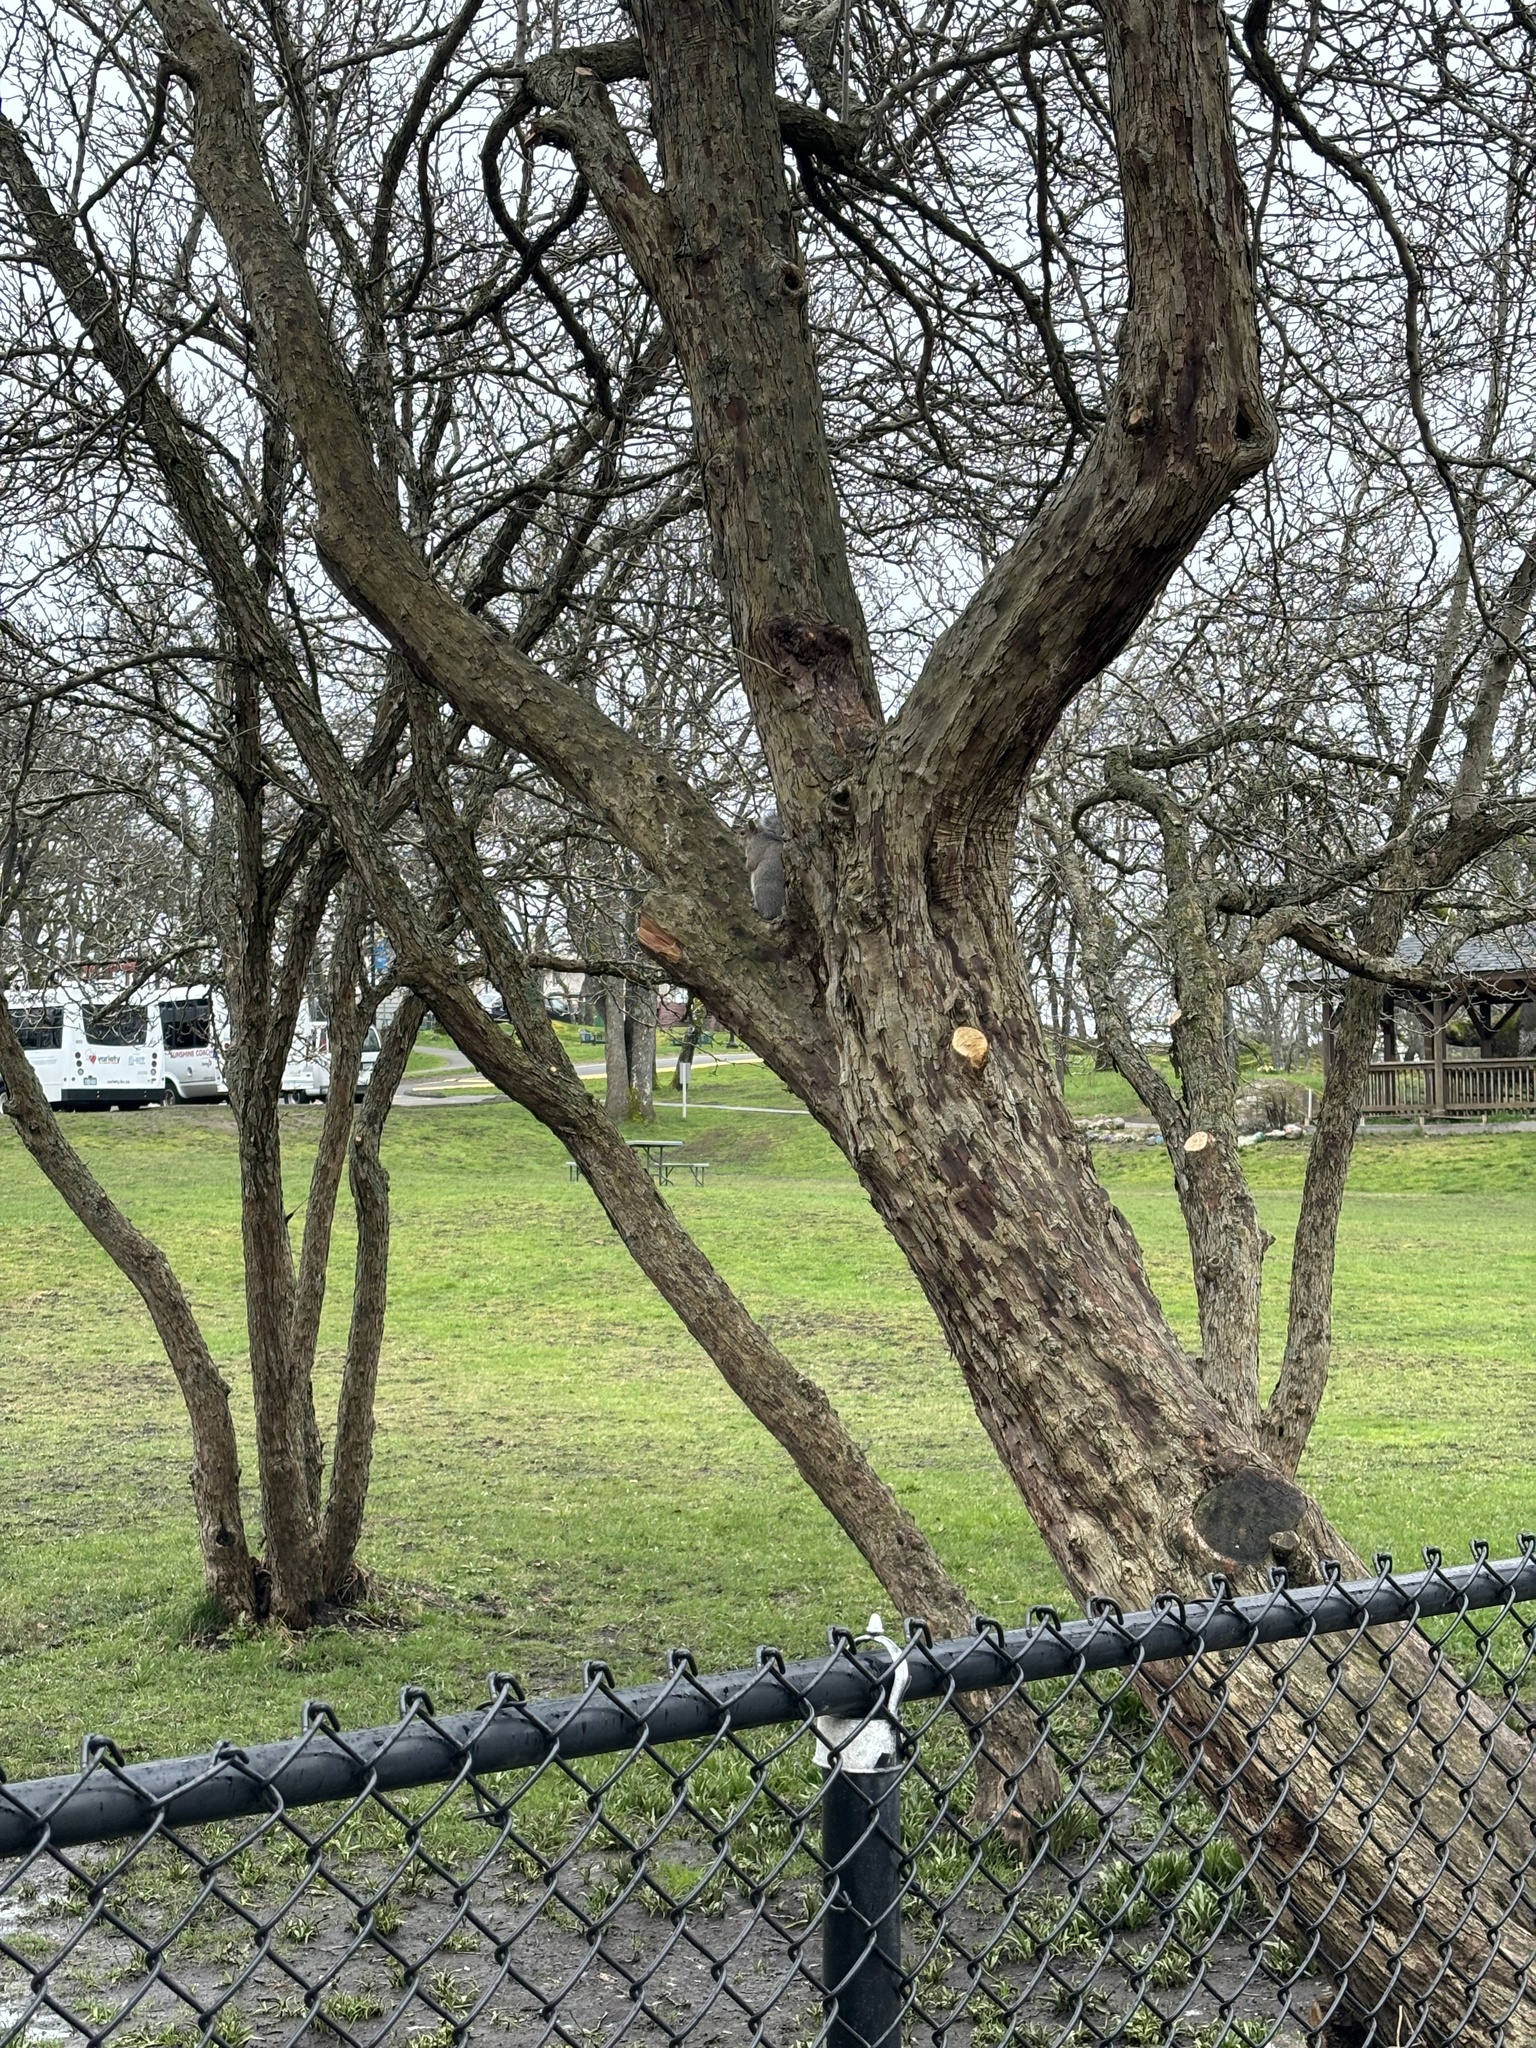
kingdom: Animalia
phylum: Chordata
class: Mammalia
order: Rodentia
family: Sciuridae
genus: Sciurus
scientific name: Sciurus carolinensis
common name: Eastern gray squirrel
